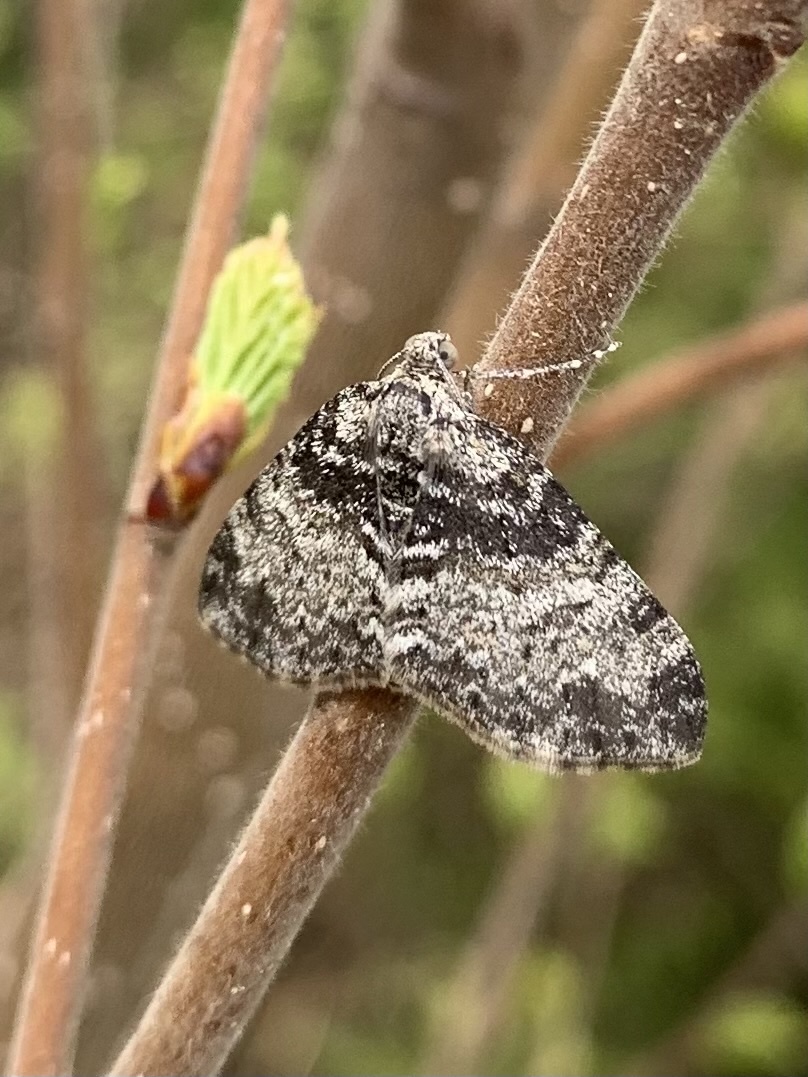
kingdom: Animalia
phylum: Arthropoda
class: Insecta
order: Lepidoptera
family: Geometridae
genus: Lobophora
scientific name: Lobophora halterata
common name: Seraphim
